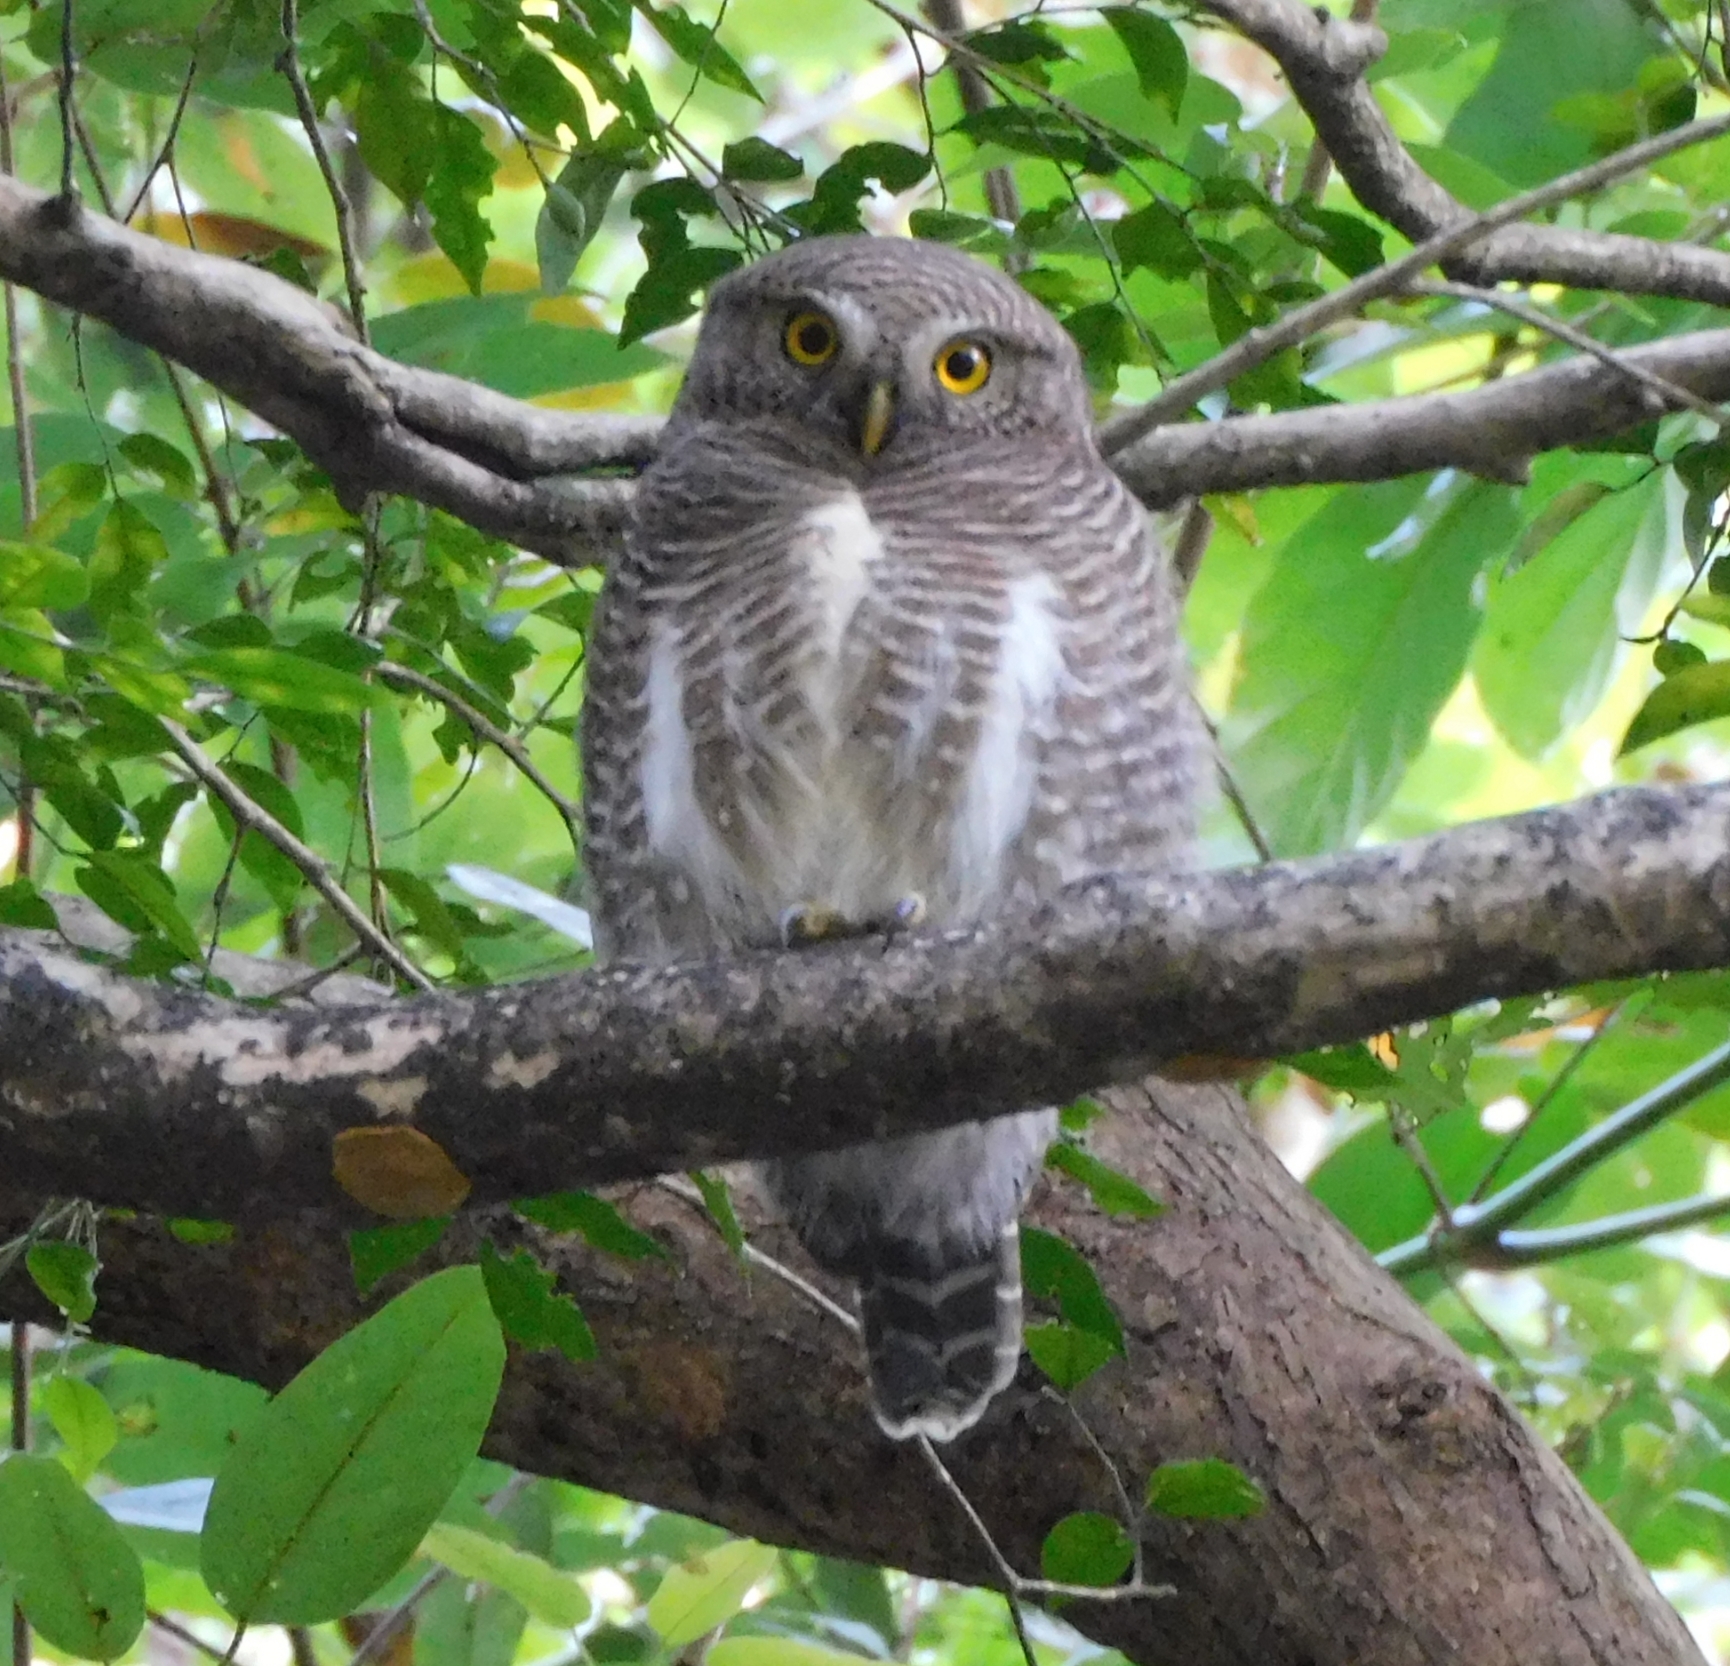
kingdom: Animalia
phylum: Chordata
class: Aves
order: Strigiformes
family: Strigidae
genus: Glaucidium
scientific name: Glaucidium cuculoides
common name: Asian barred owlet
